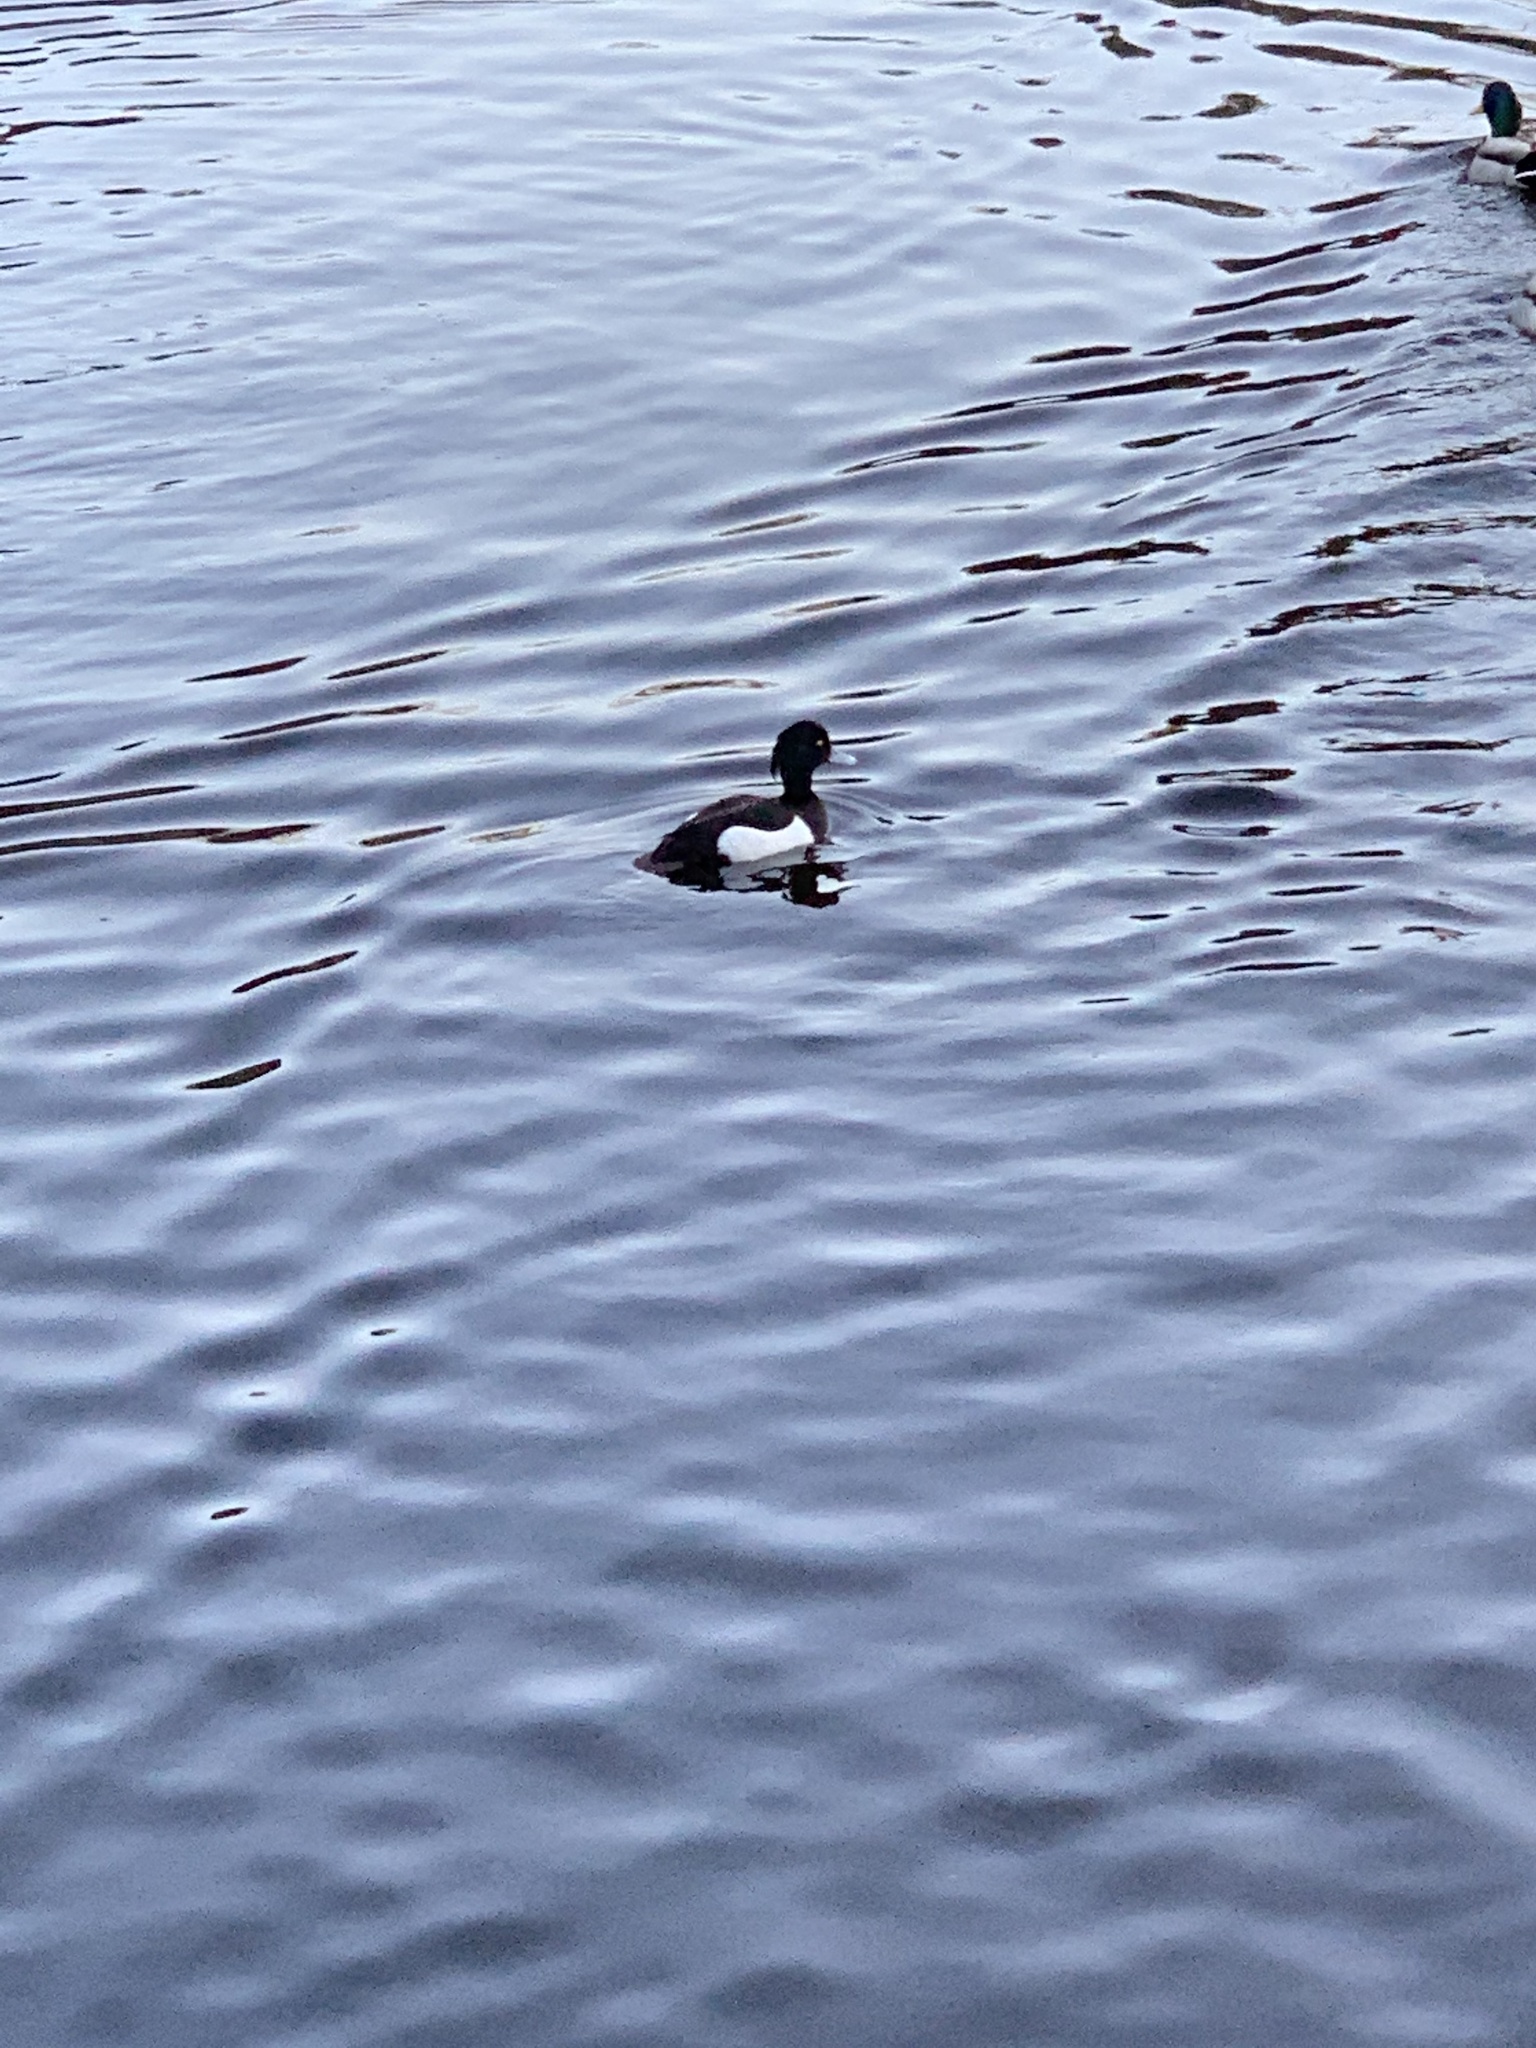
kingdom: Animalia
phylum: Chordata
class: Aves
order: Anseriformes
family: Anatidae
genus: Aythya
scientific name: Aythya fuligula
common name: Tufted duck
